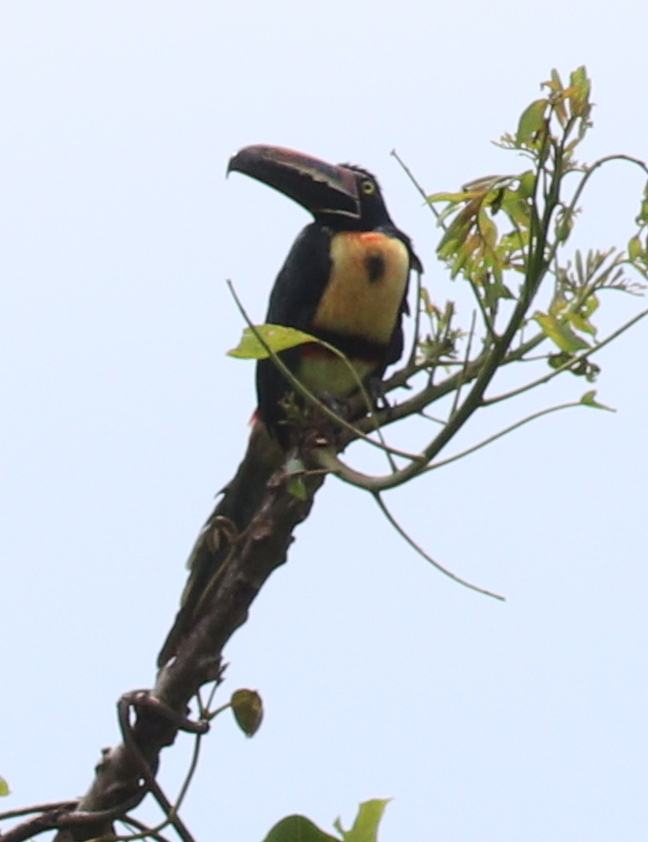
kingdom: Animalia
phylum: Chordata
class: Aves
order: Piciformes
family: Ramphastidae
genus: Pteroglossus
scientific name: Pteroglossus torquatus
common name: Collared aracari
